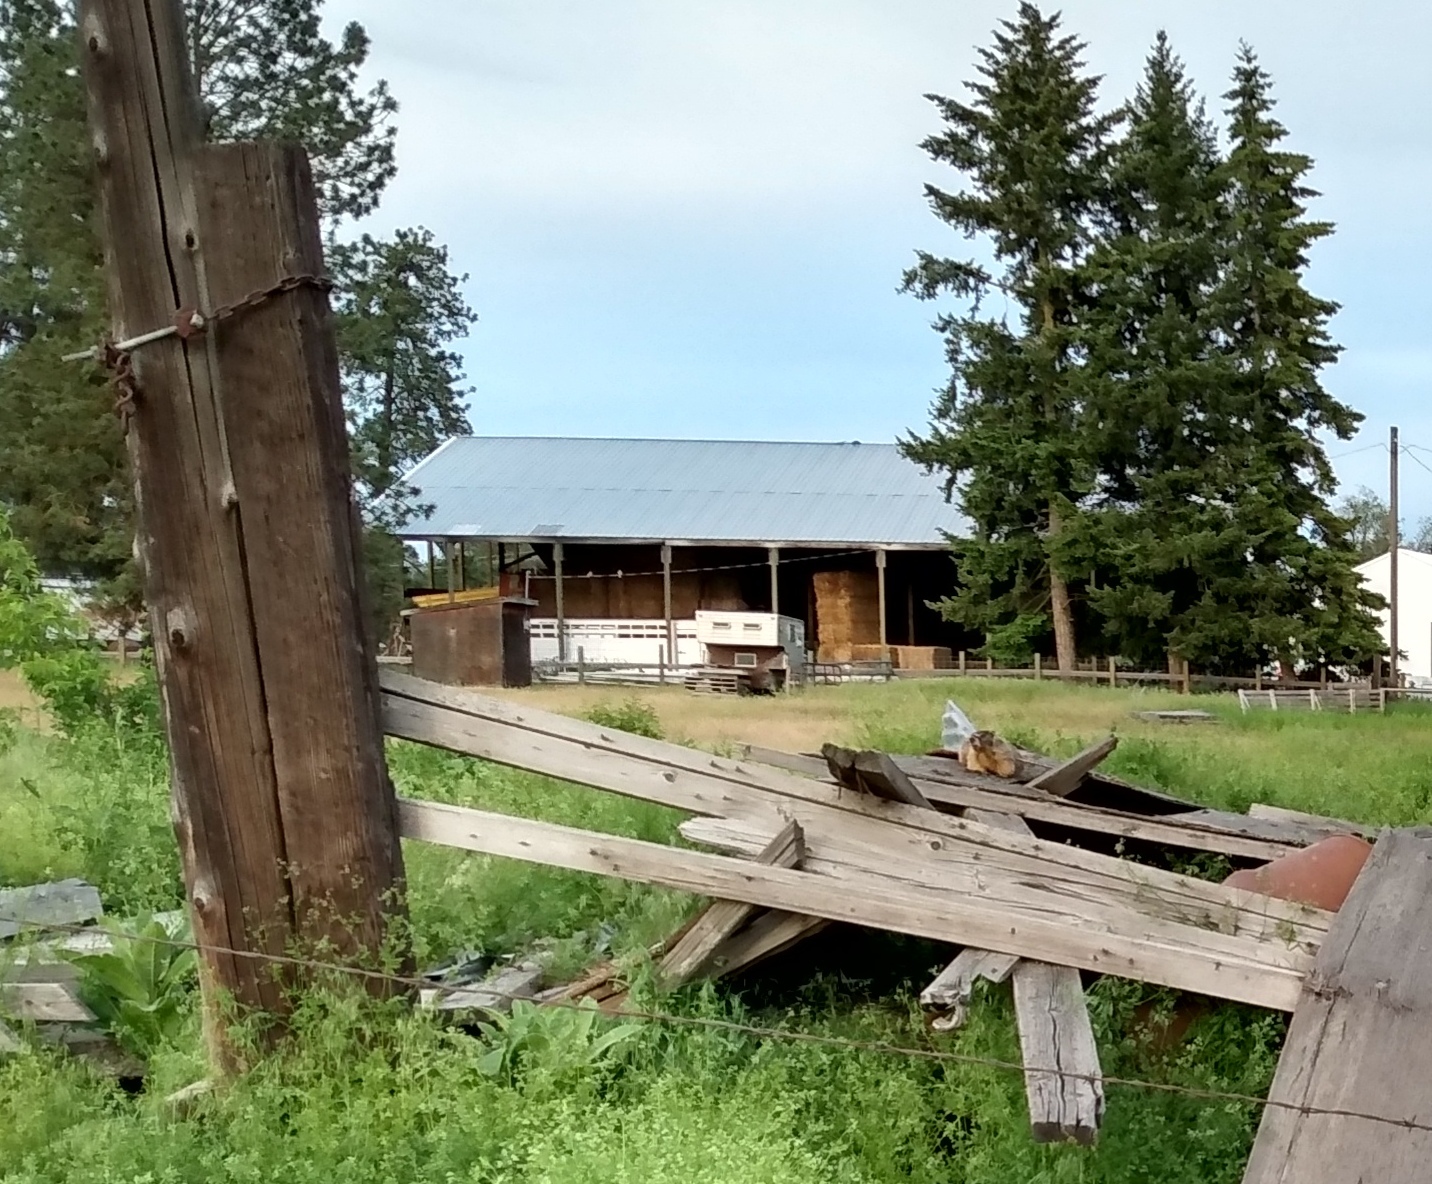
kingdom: Animalia
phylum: Chordata
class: Mammalia
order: Rodentia
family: Sciuridae
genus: Marmota
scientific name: Marmota flaviventris
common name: Yellow-bellied marmot
